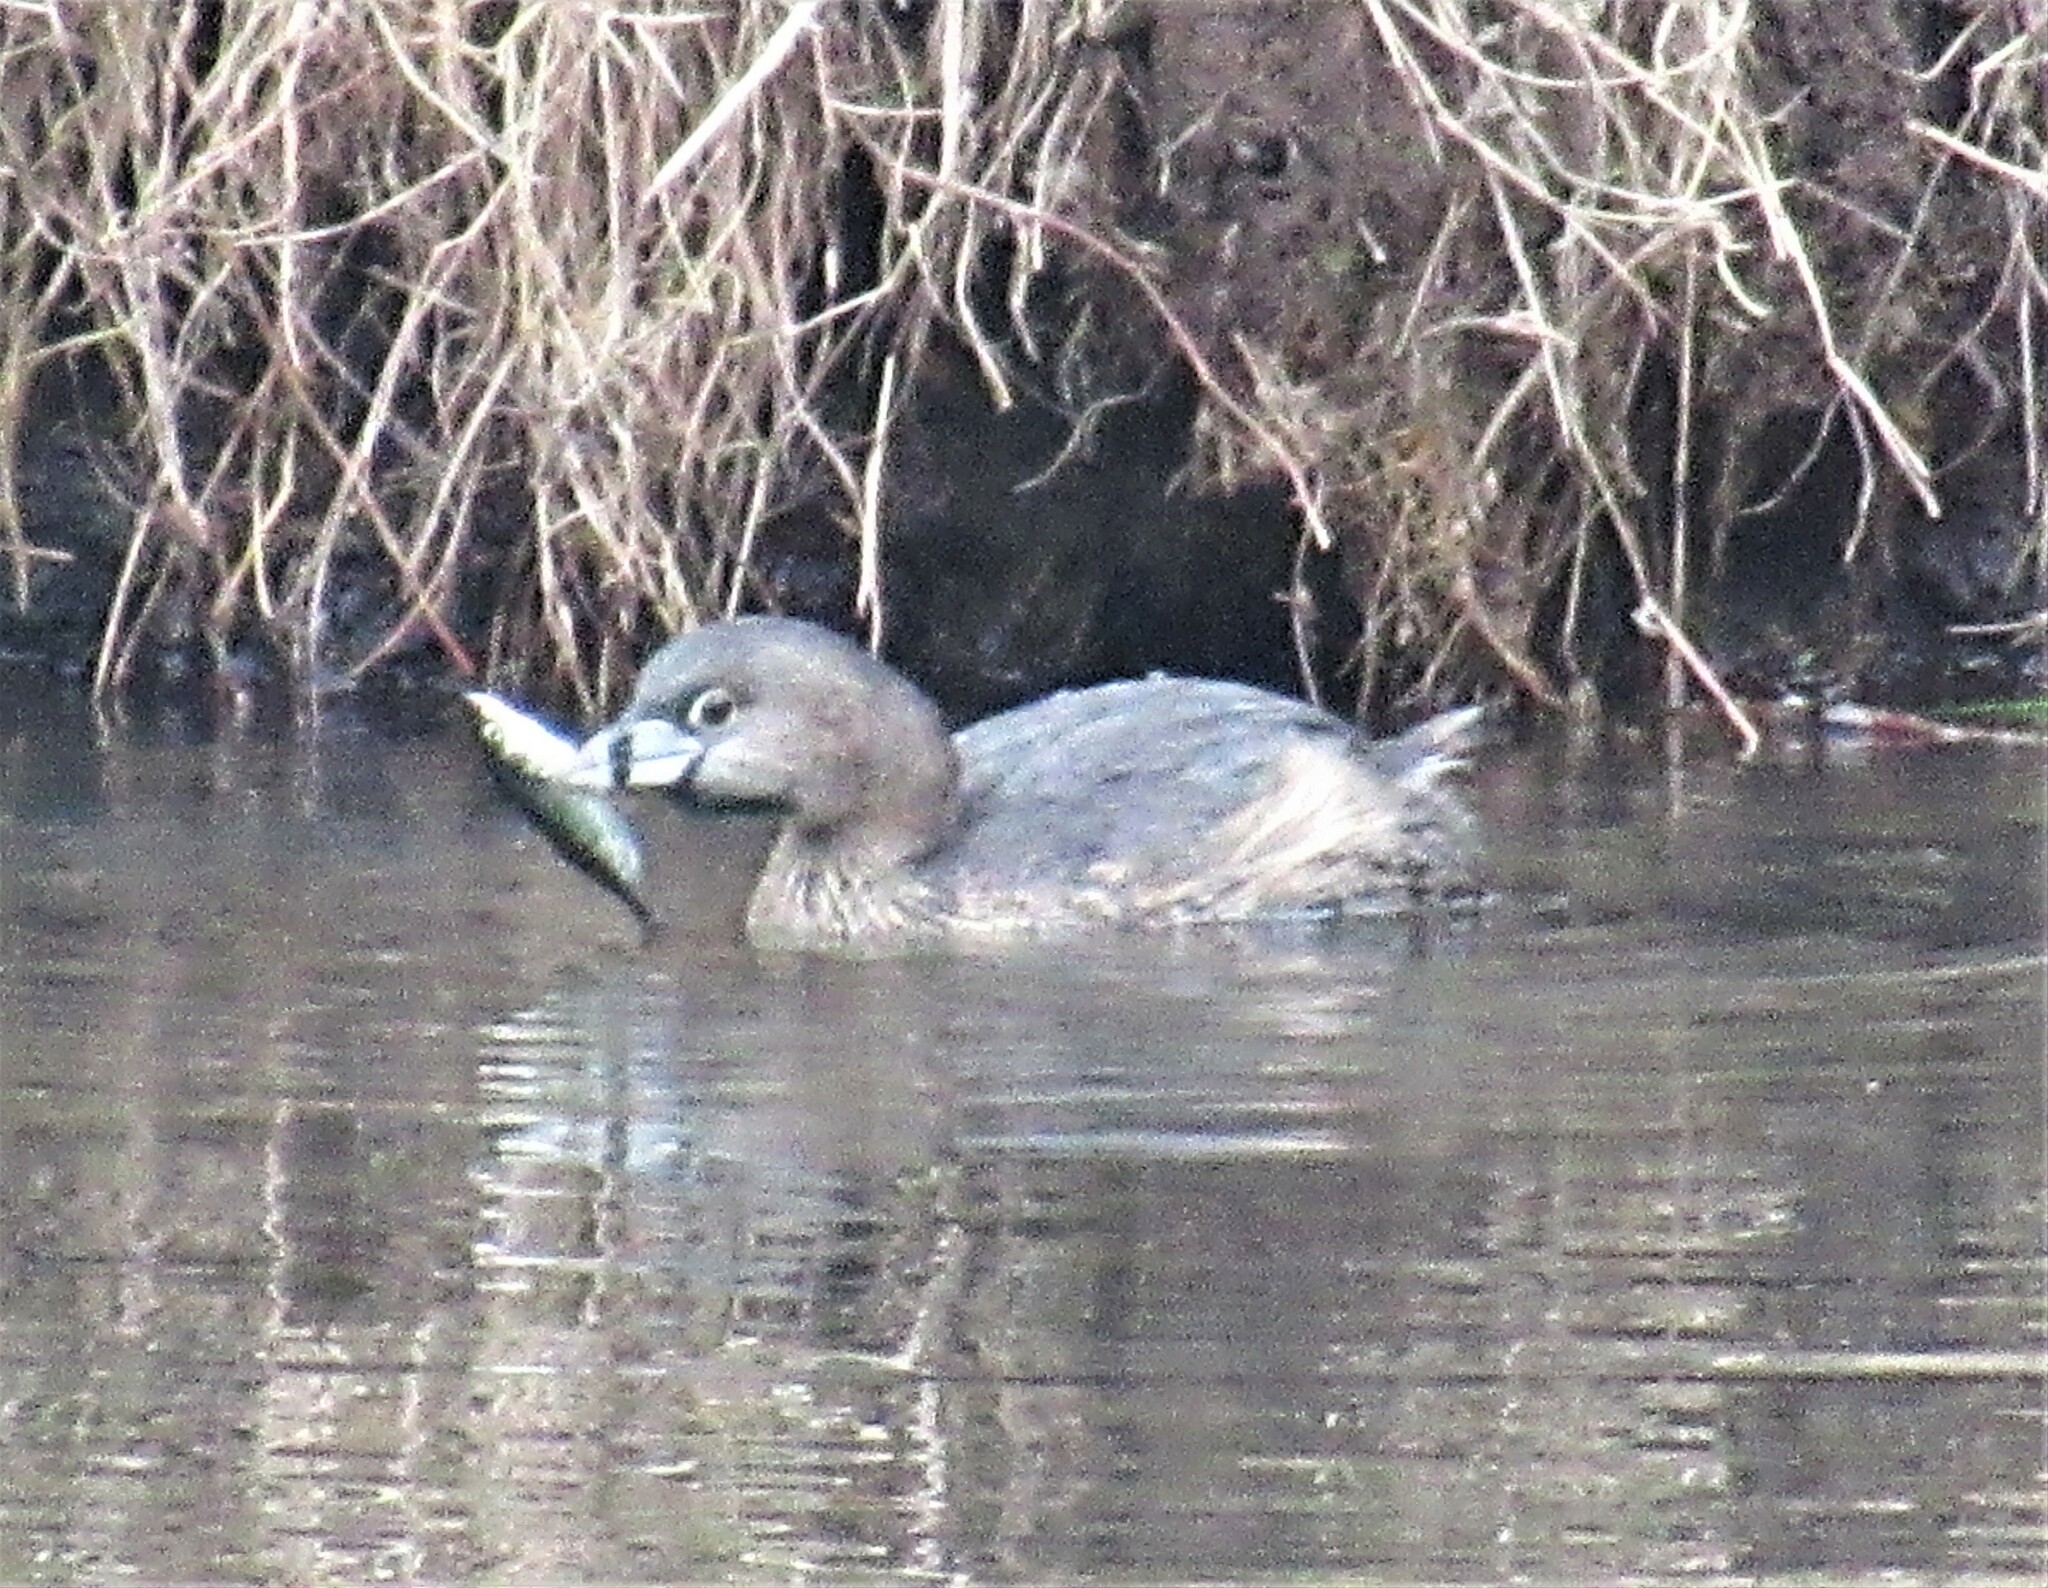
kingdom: Animalia
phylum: Chordata
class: Aves
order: Podicipediformes
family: Podicipedidae
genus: Podilymbus
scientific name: Podilymbus podiceps
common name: Pied-billed grebe
